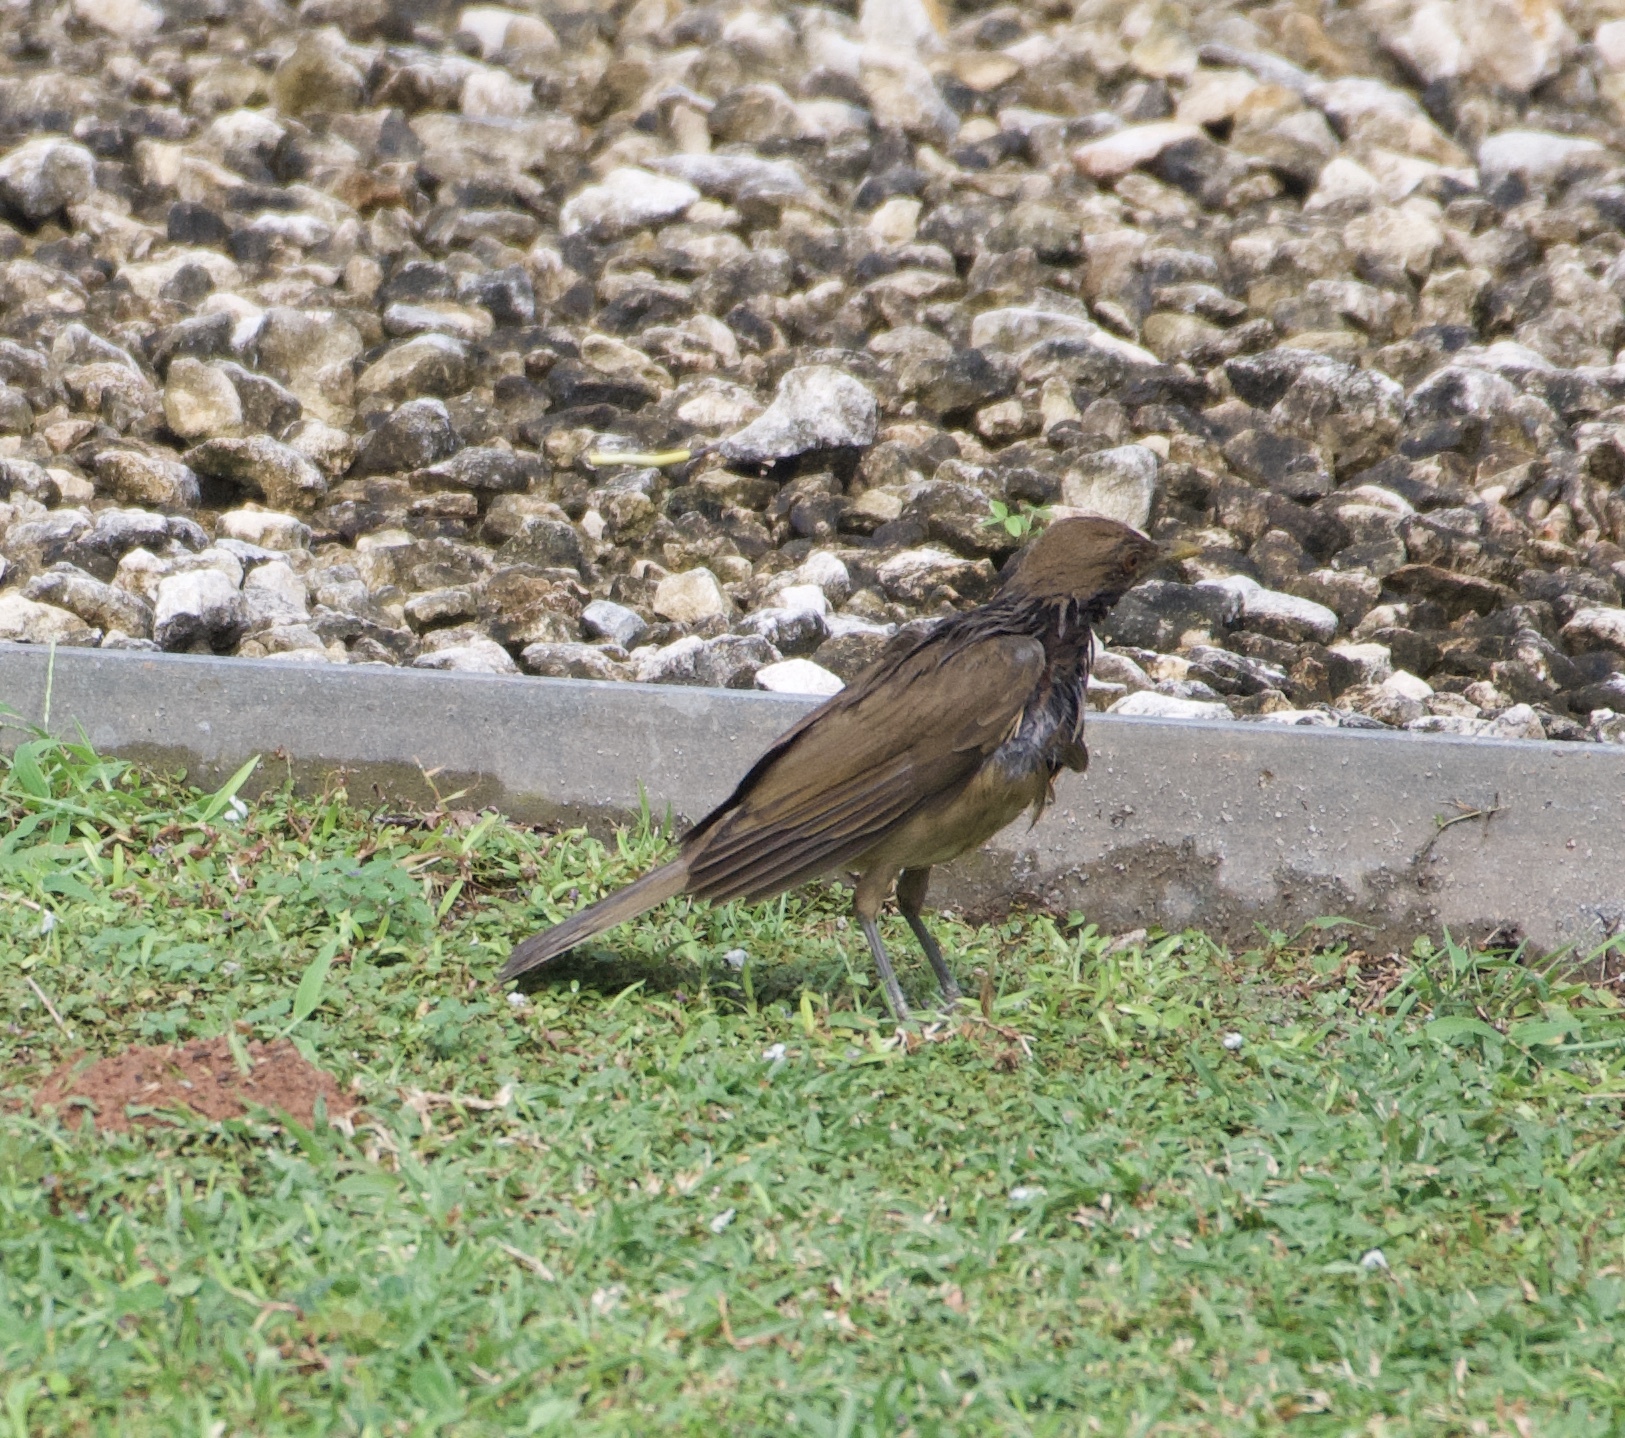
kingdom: Animalia
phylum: Chordata
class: Aves
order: Passeriformes
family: Turdidae
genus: Turdus
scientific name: Turdus grayi
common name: Clay-colored thrush
